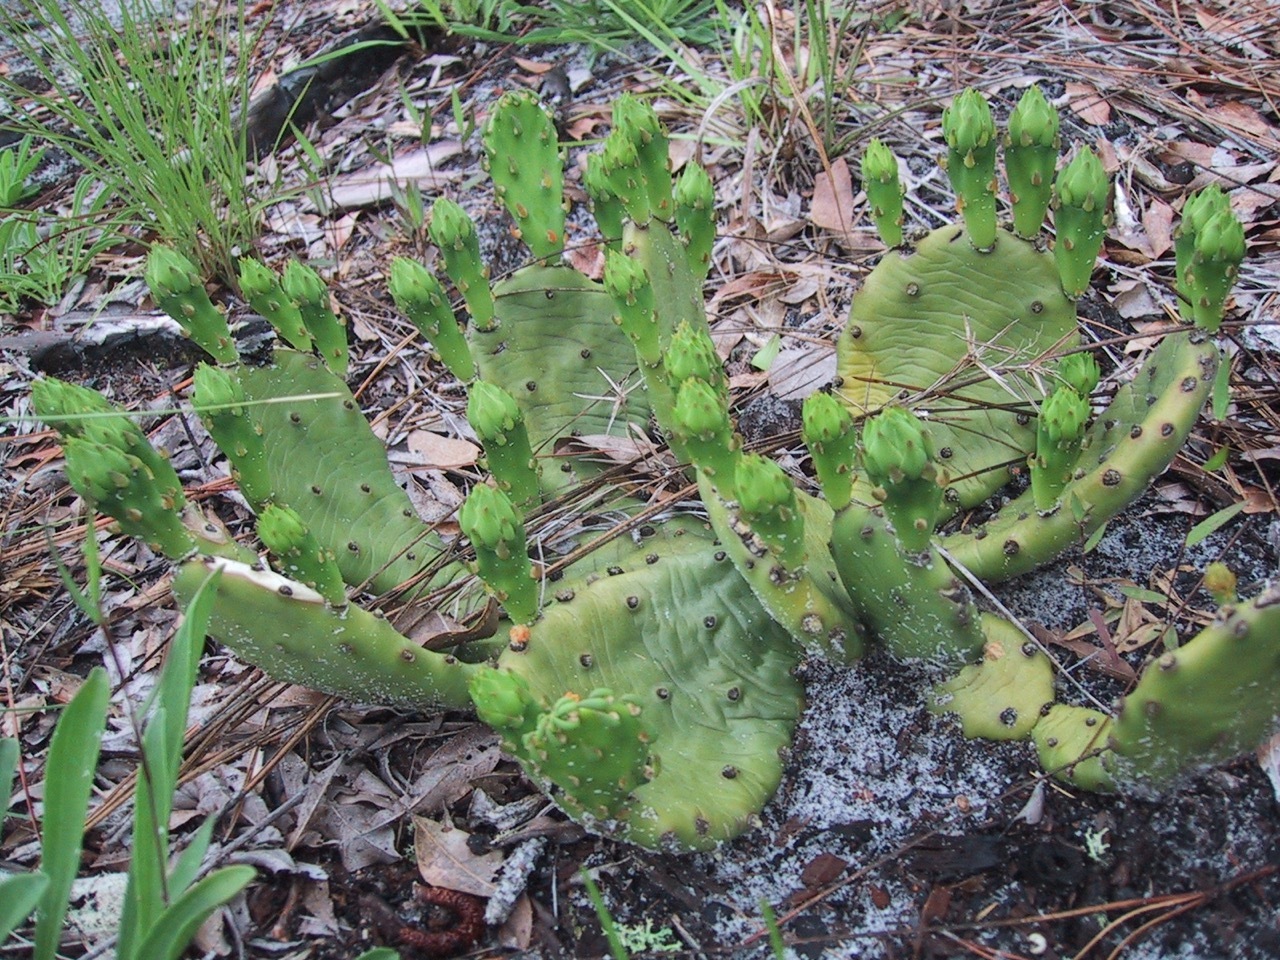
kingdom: Plantae
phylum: Tracheophyta
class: Magnoliopsida
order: Caryophyllales
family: Cactaceae
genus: Opuntia
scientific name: Opuntia humifusa
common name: Eastern prickly-pear
